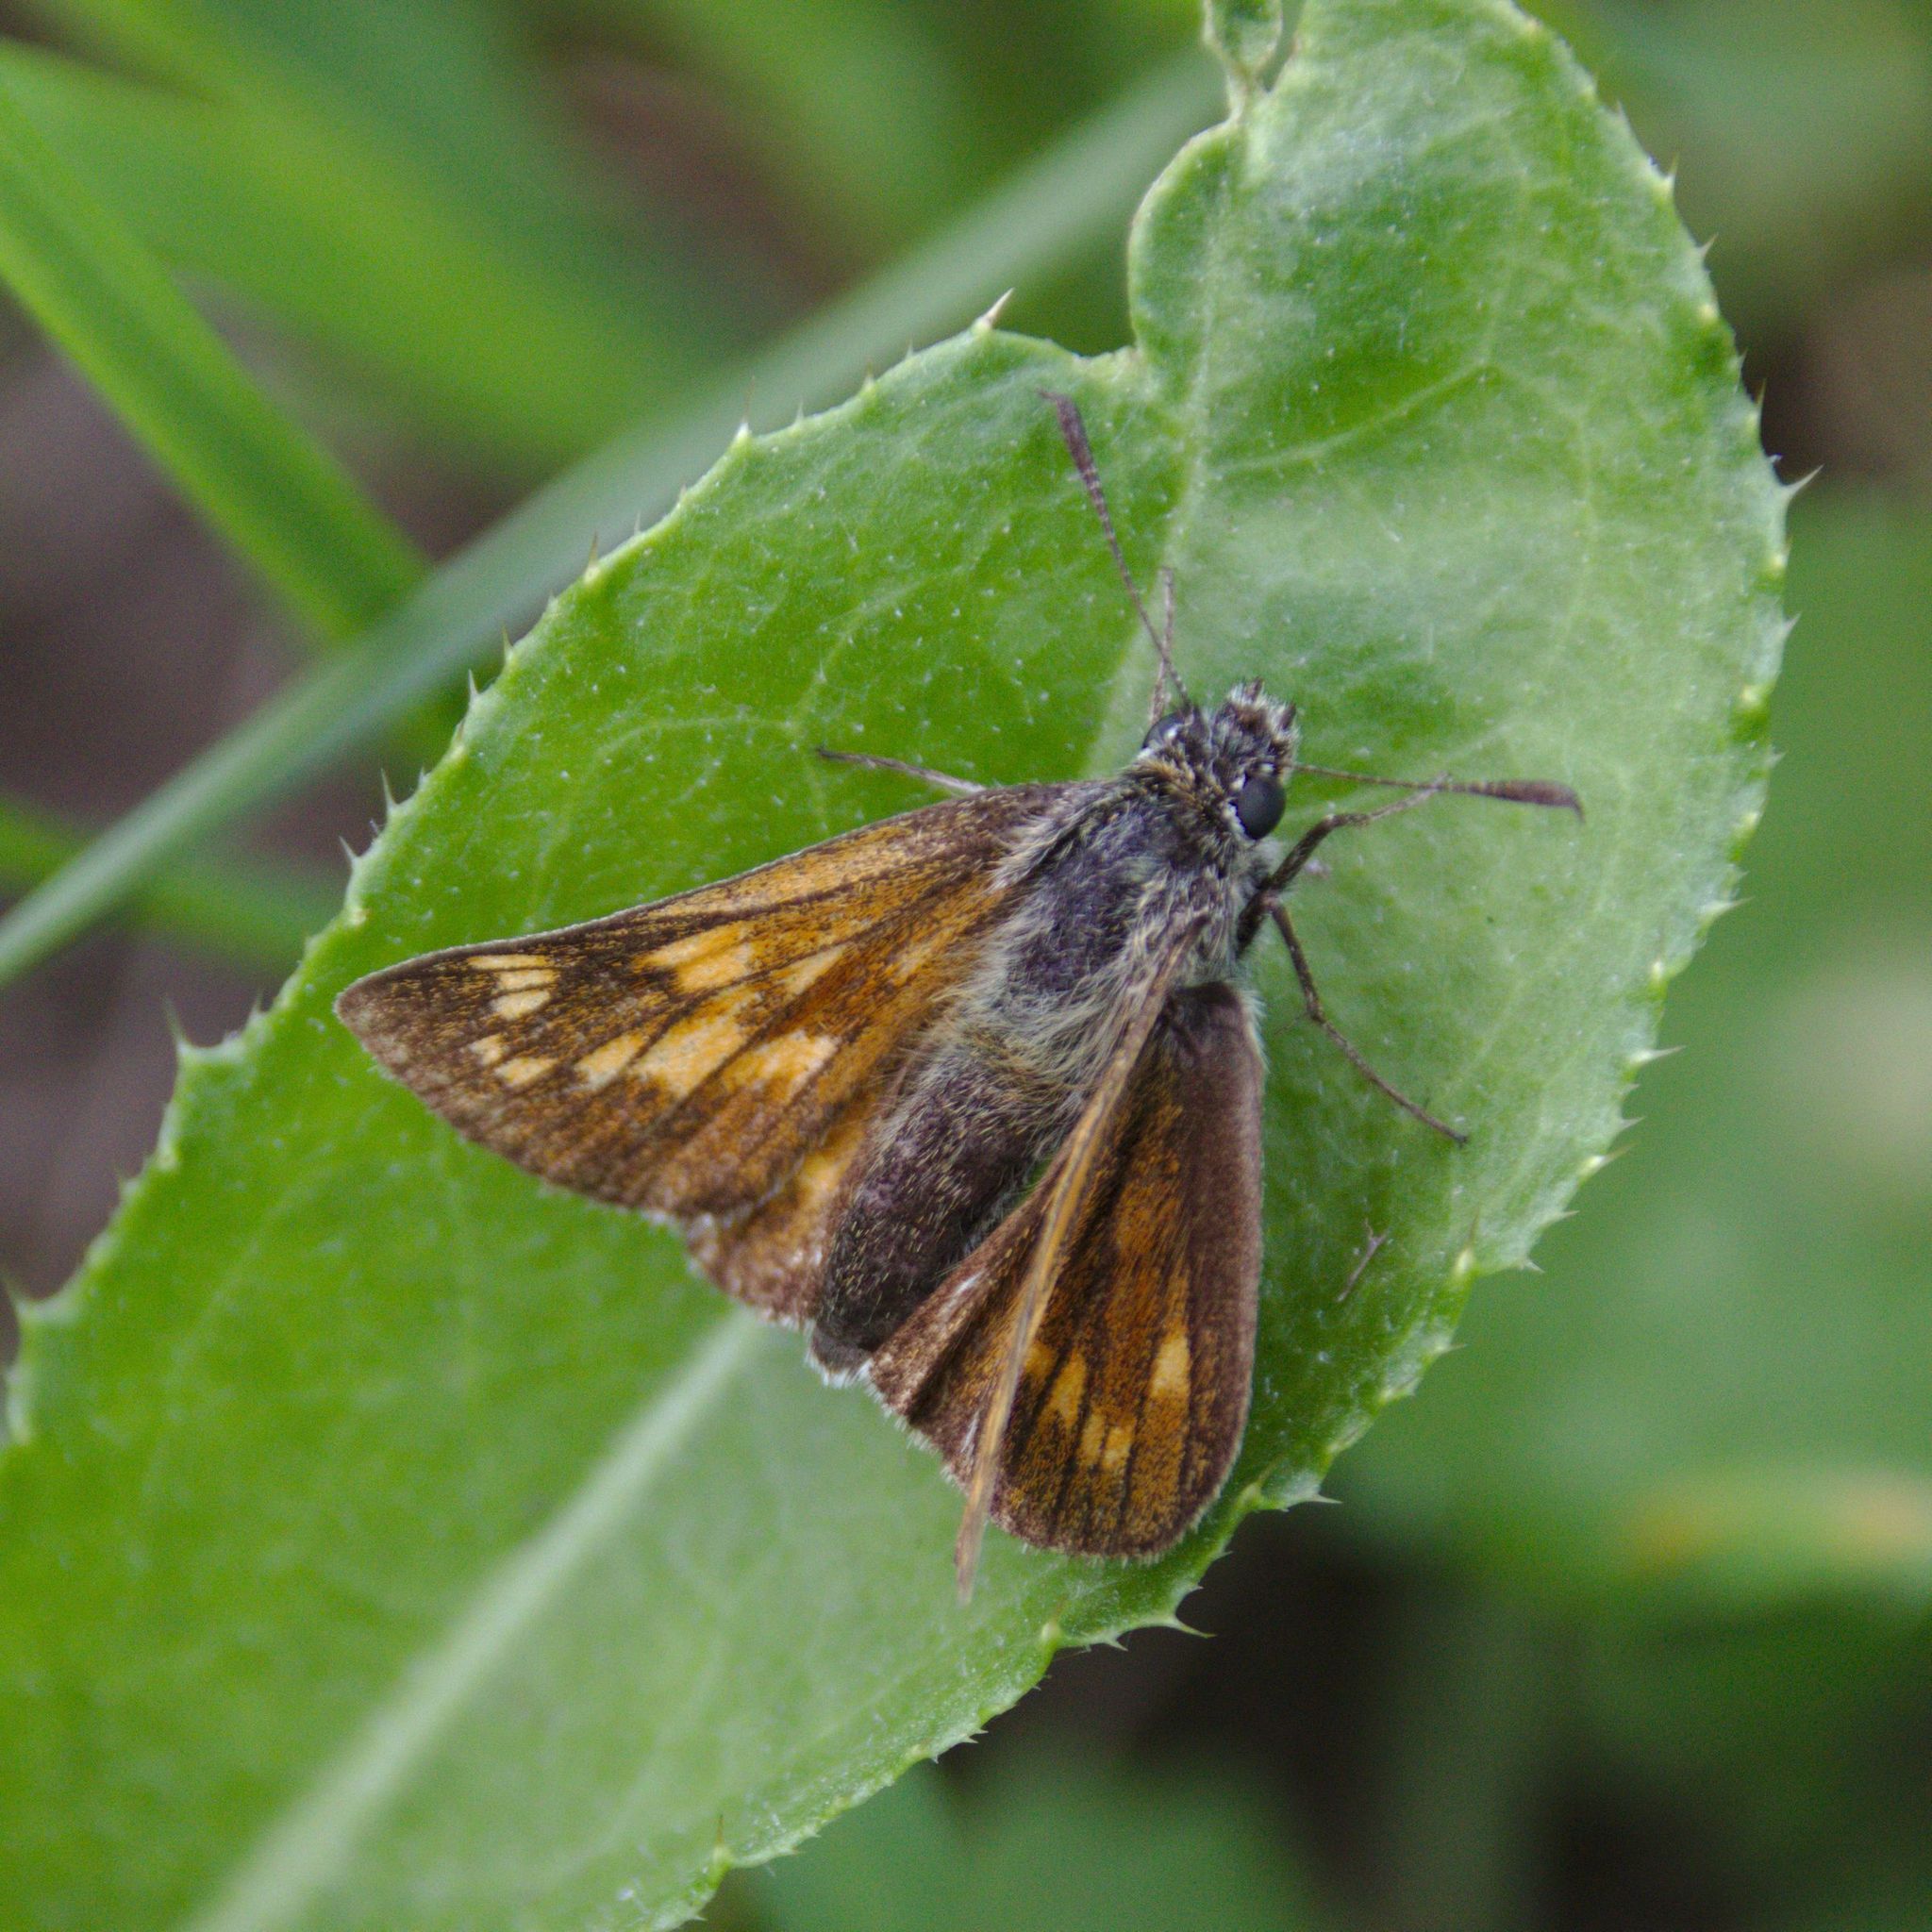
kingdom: Animalia
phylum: Arthropoda
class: Insecta
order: Lepidoptera
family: Hesperiidae
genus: Ochlodes
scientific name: Ochlodes venata
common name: Large skipper
